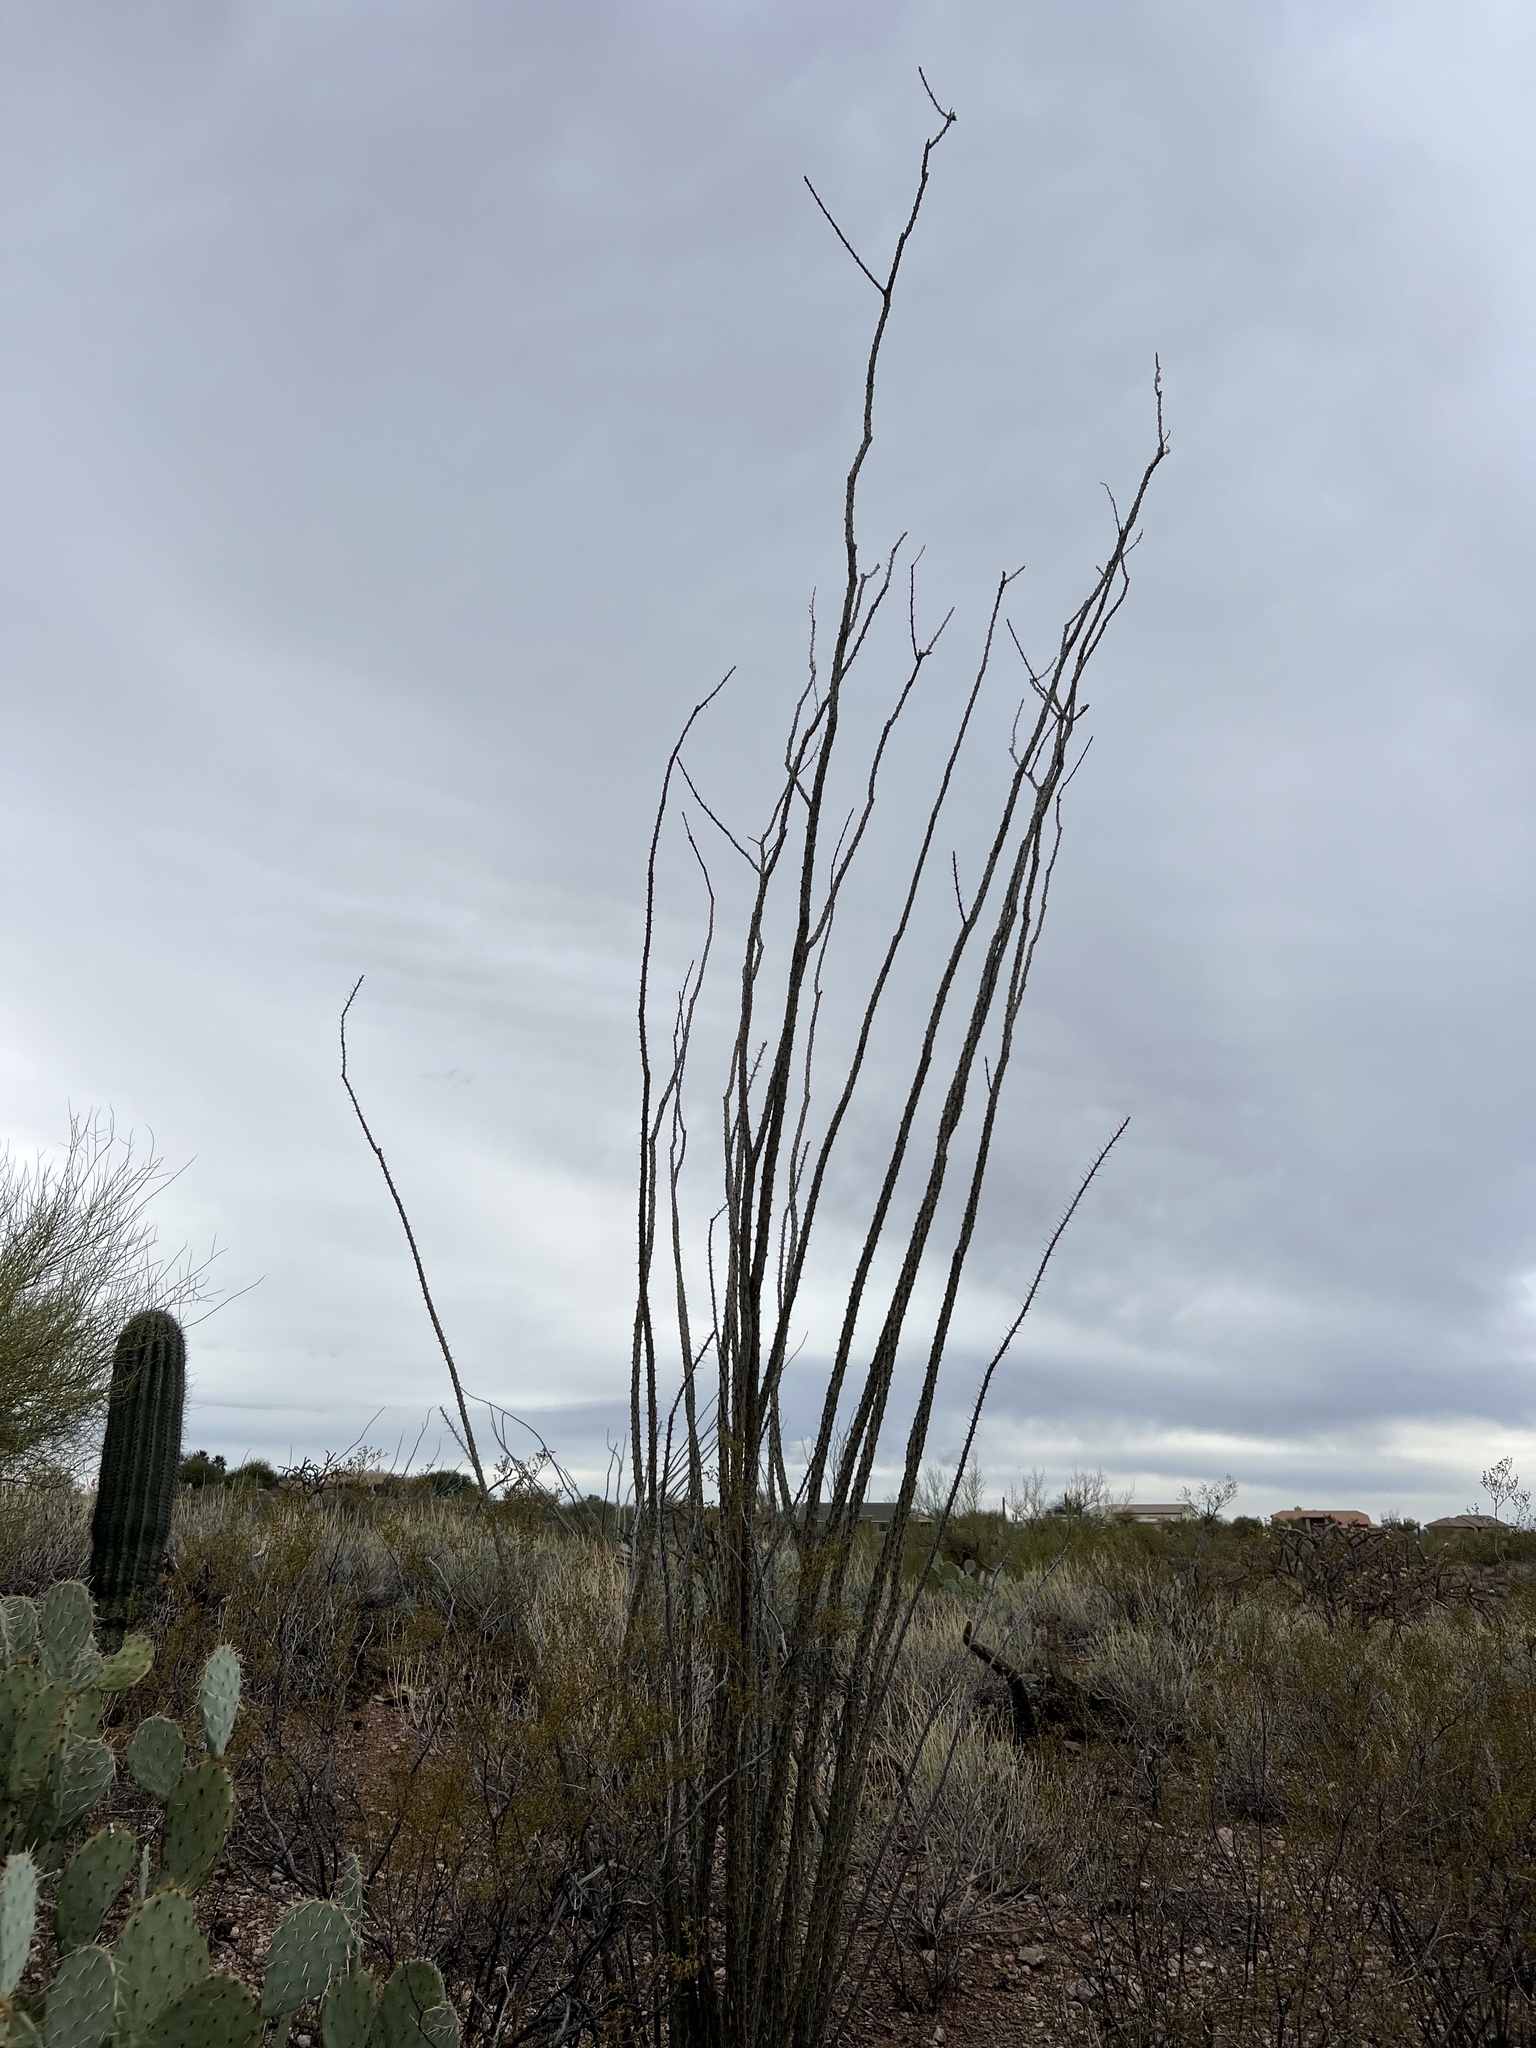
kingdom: Plantae
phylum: Tracheophyta
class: Magnoliopsida
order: Ericales
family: Fouquieriaceae
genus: Fouquieria
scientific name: Fouquieria splendens
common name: Vine-cactus
